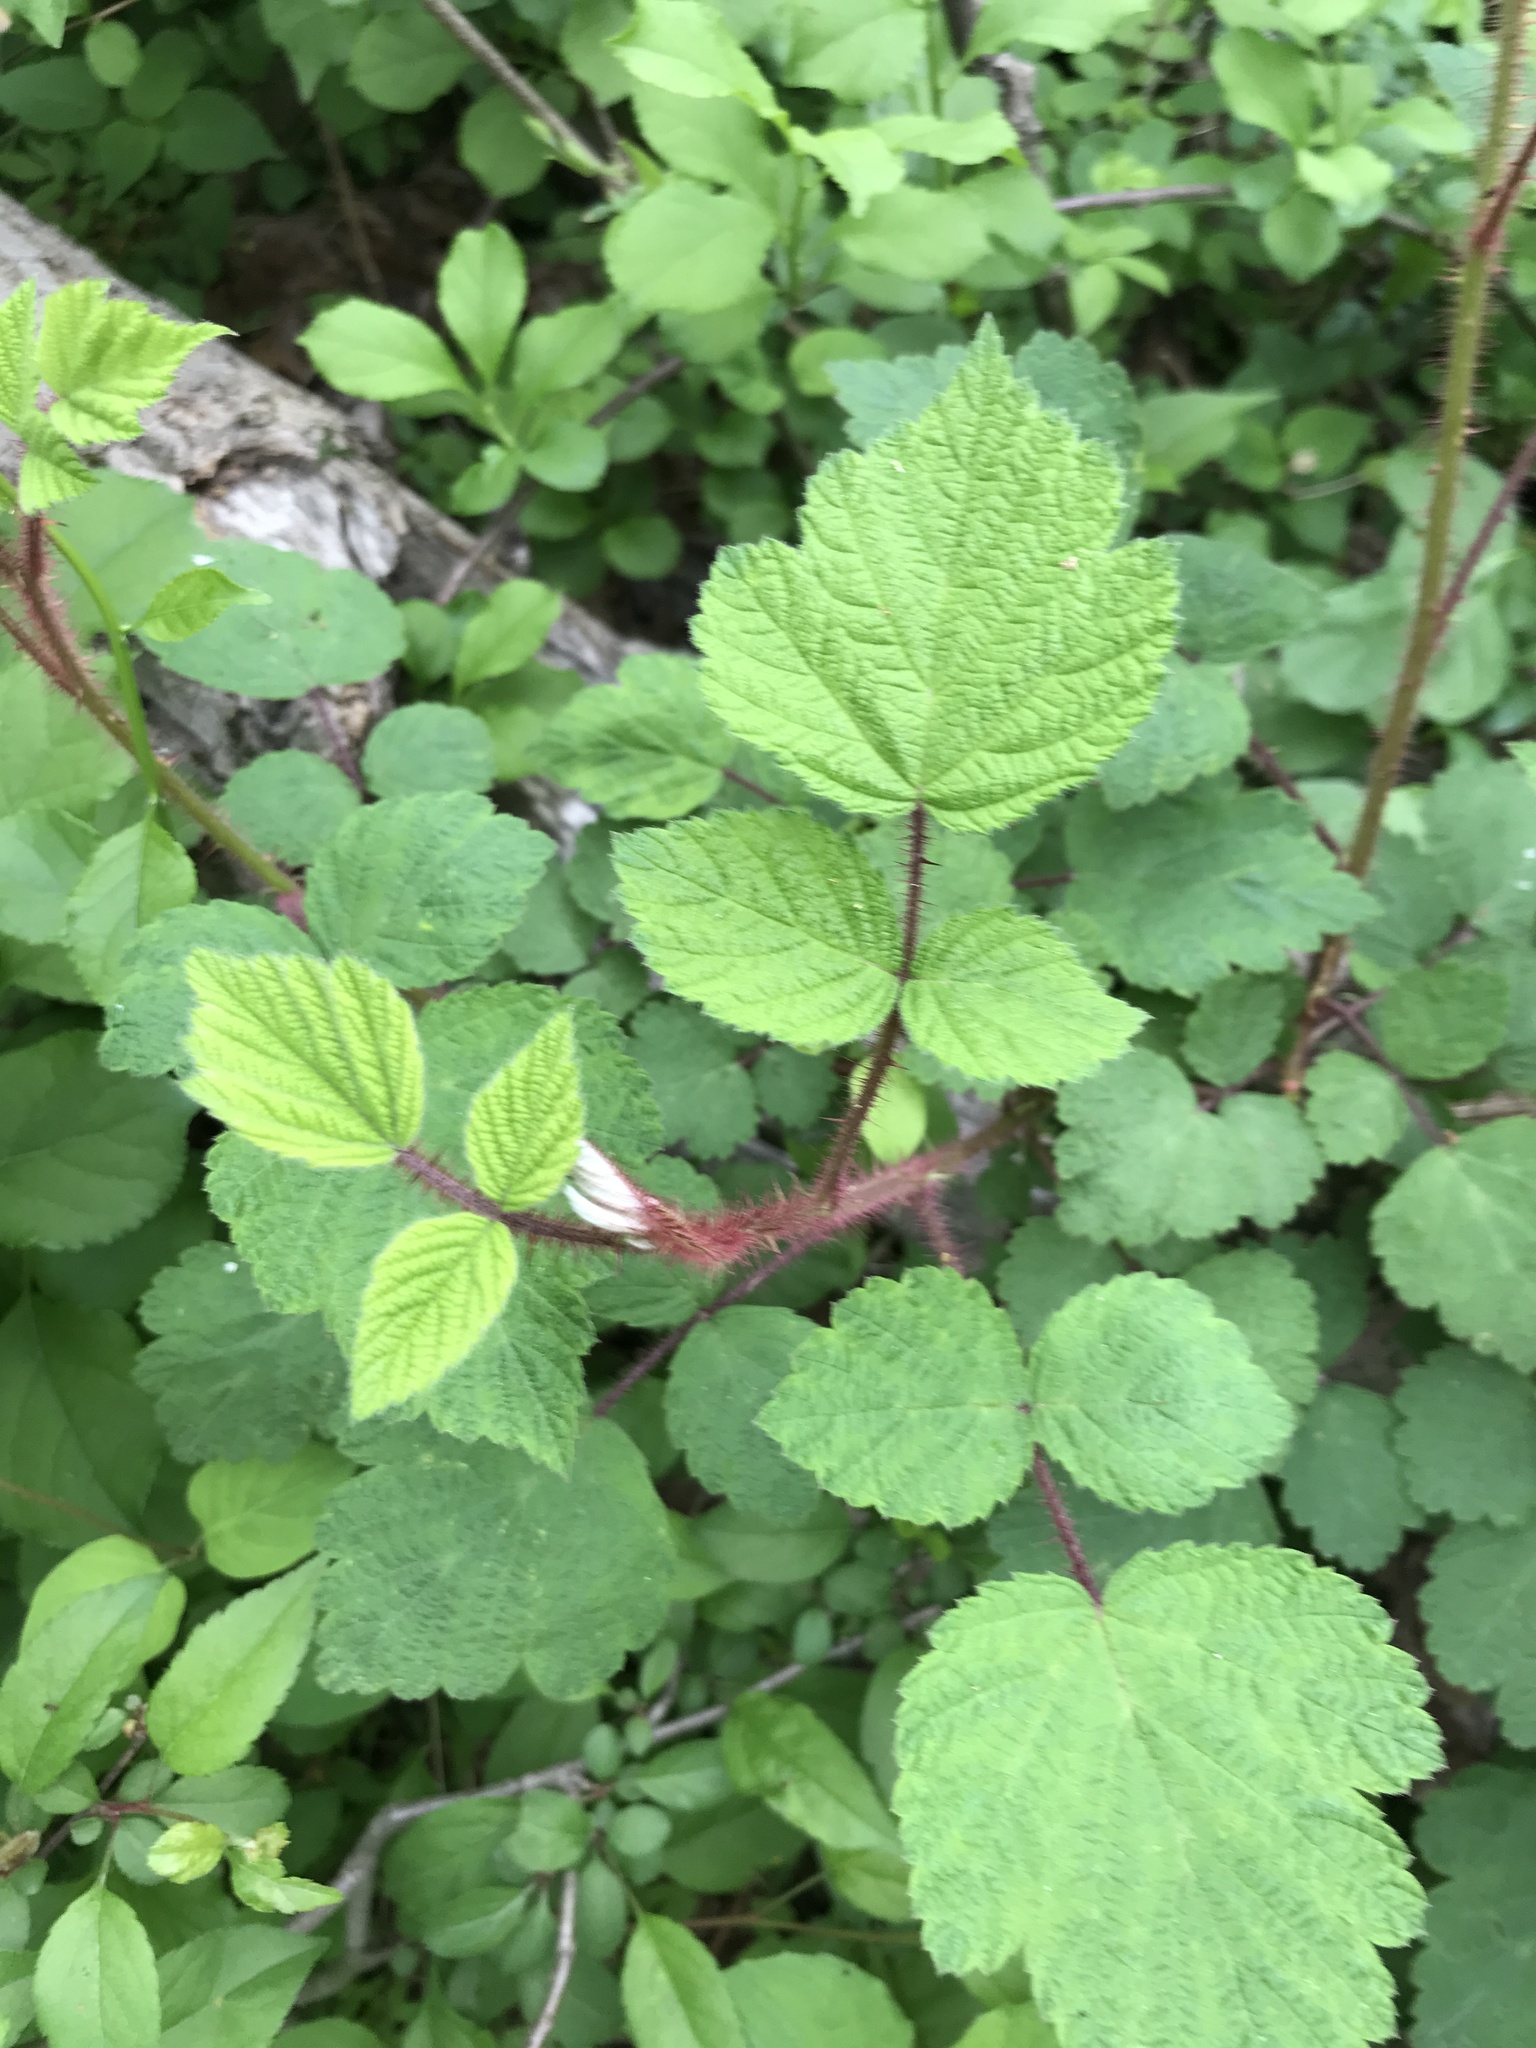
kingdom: Plantae
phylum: Tracheophyta
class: Magnoliopsida
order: Rosales
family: Rosaceae
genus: Rubus
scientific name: Rubus phoenicolasius
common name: Japanese wineberry
